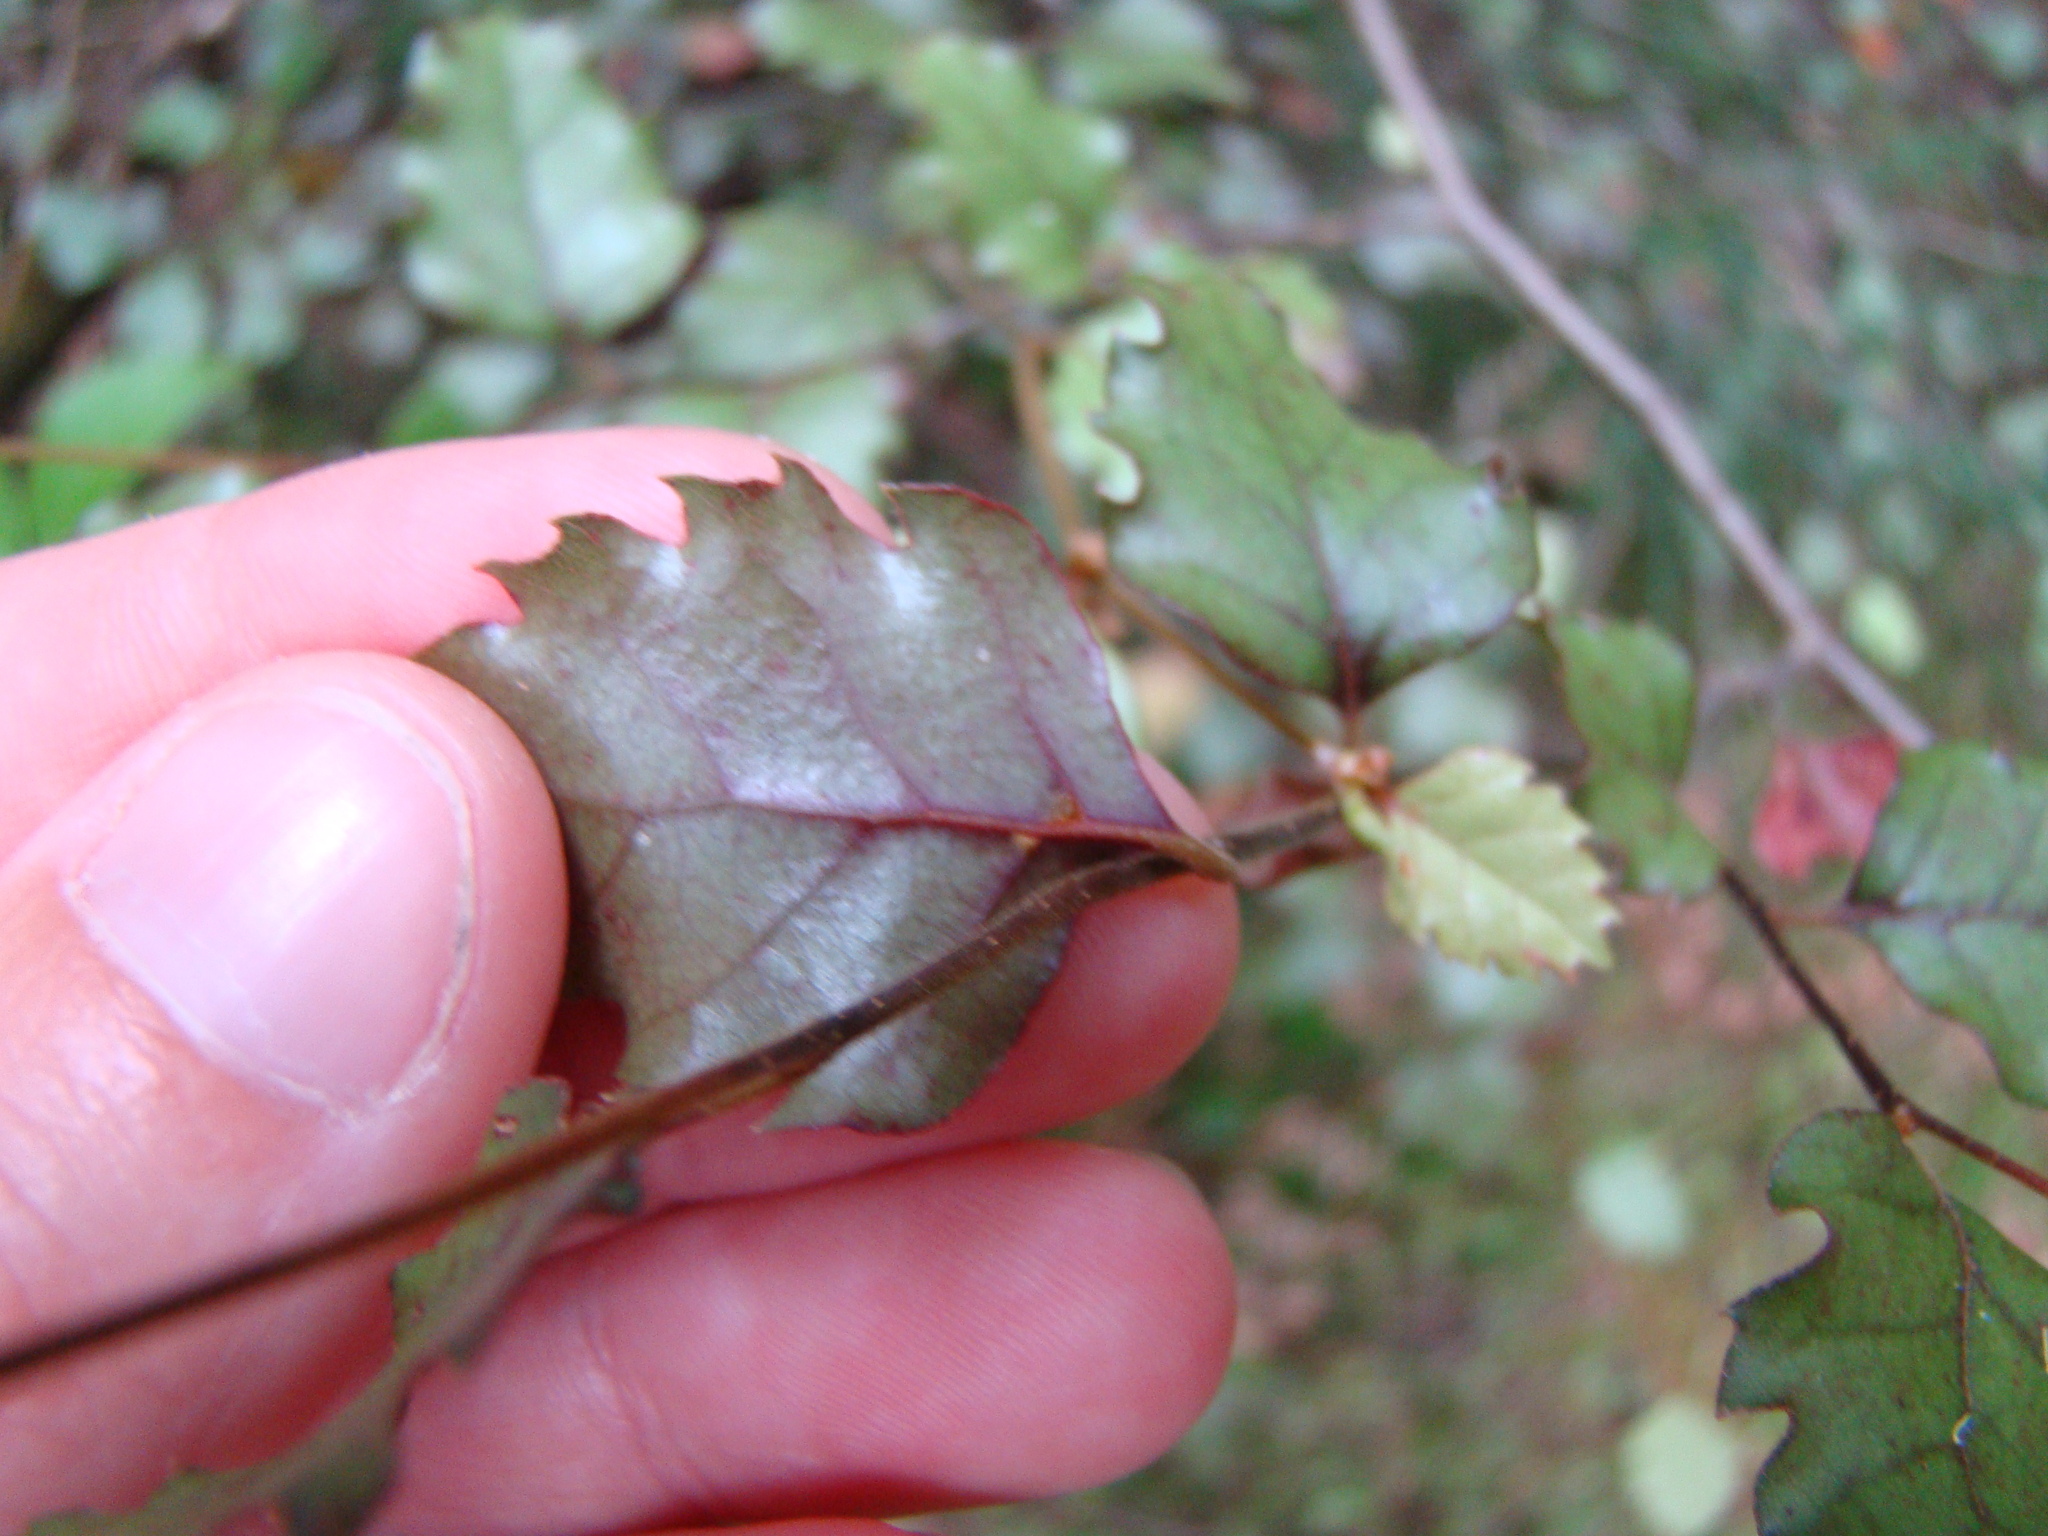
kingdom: Plantae
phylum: Tracheophyta
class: Magnoliopsida
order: Fagales
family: Nothofagaceae
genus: Nothofagus
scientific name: Nothofagus fusca
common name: Red beech
